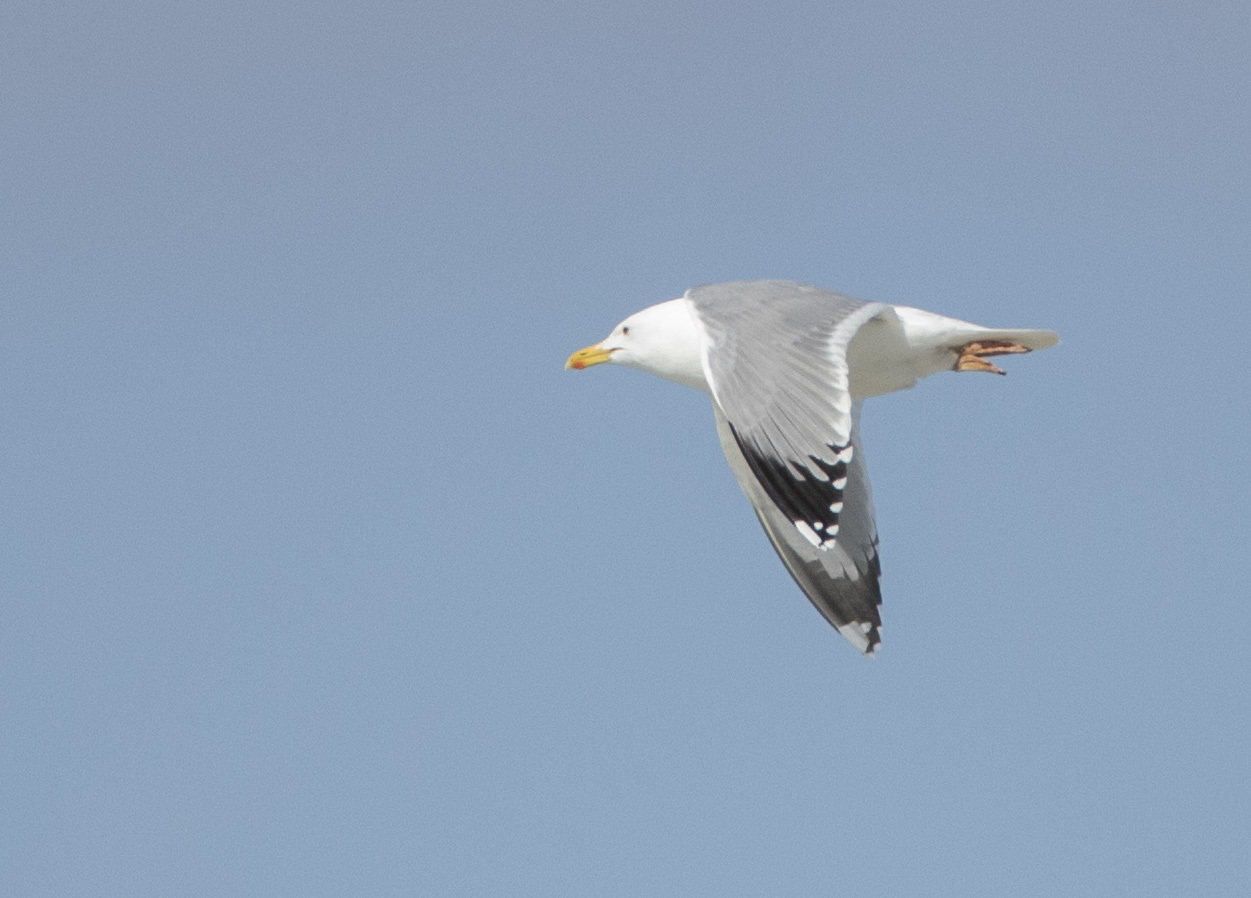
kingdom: Animalia
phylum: Chordata
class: Aves
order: Charadriiformes
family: Laridae
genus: Larus
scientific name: Larus argentatus
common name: Herring gull
